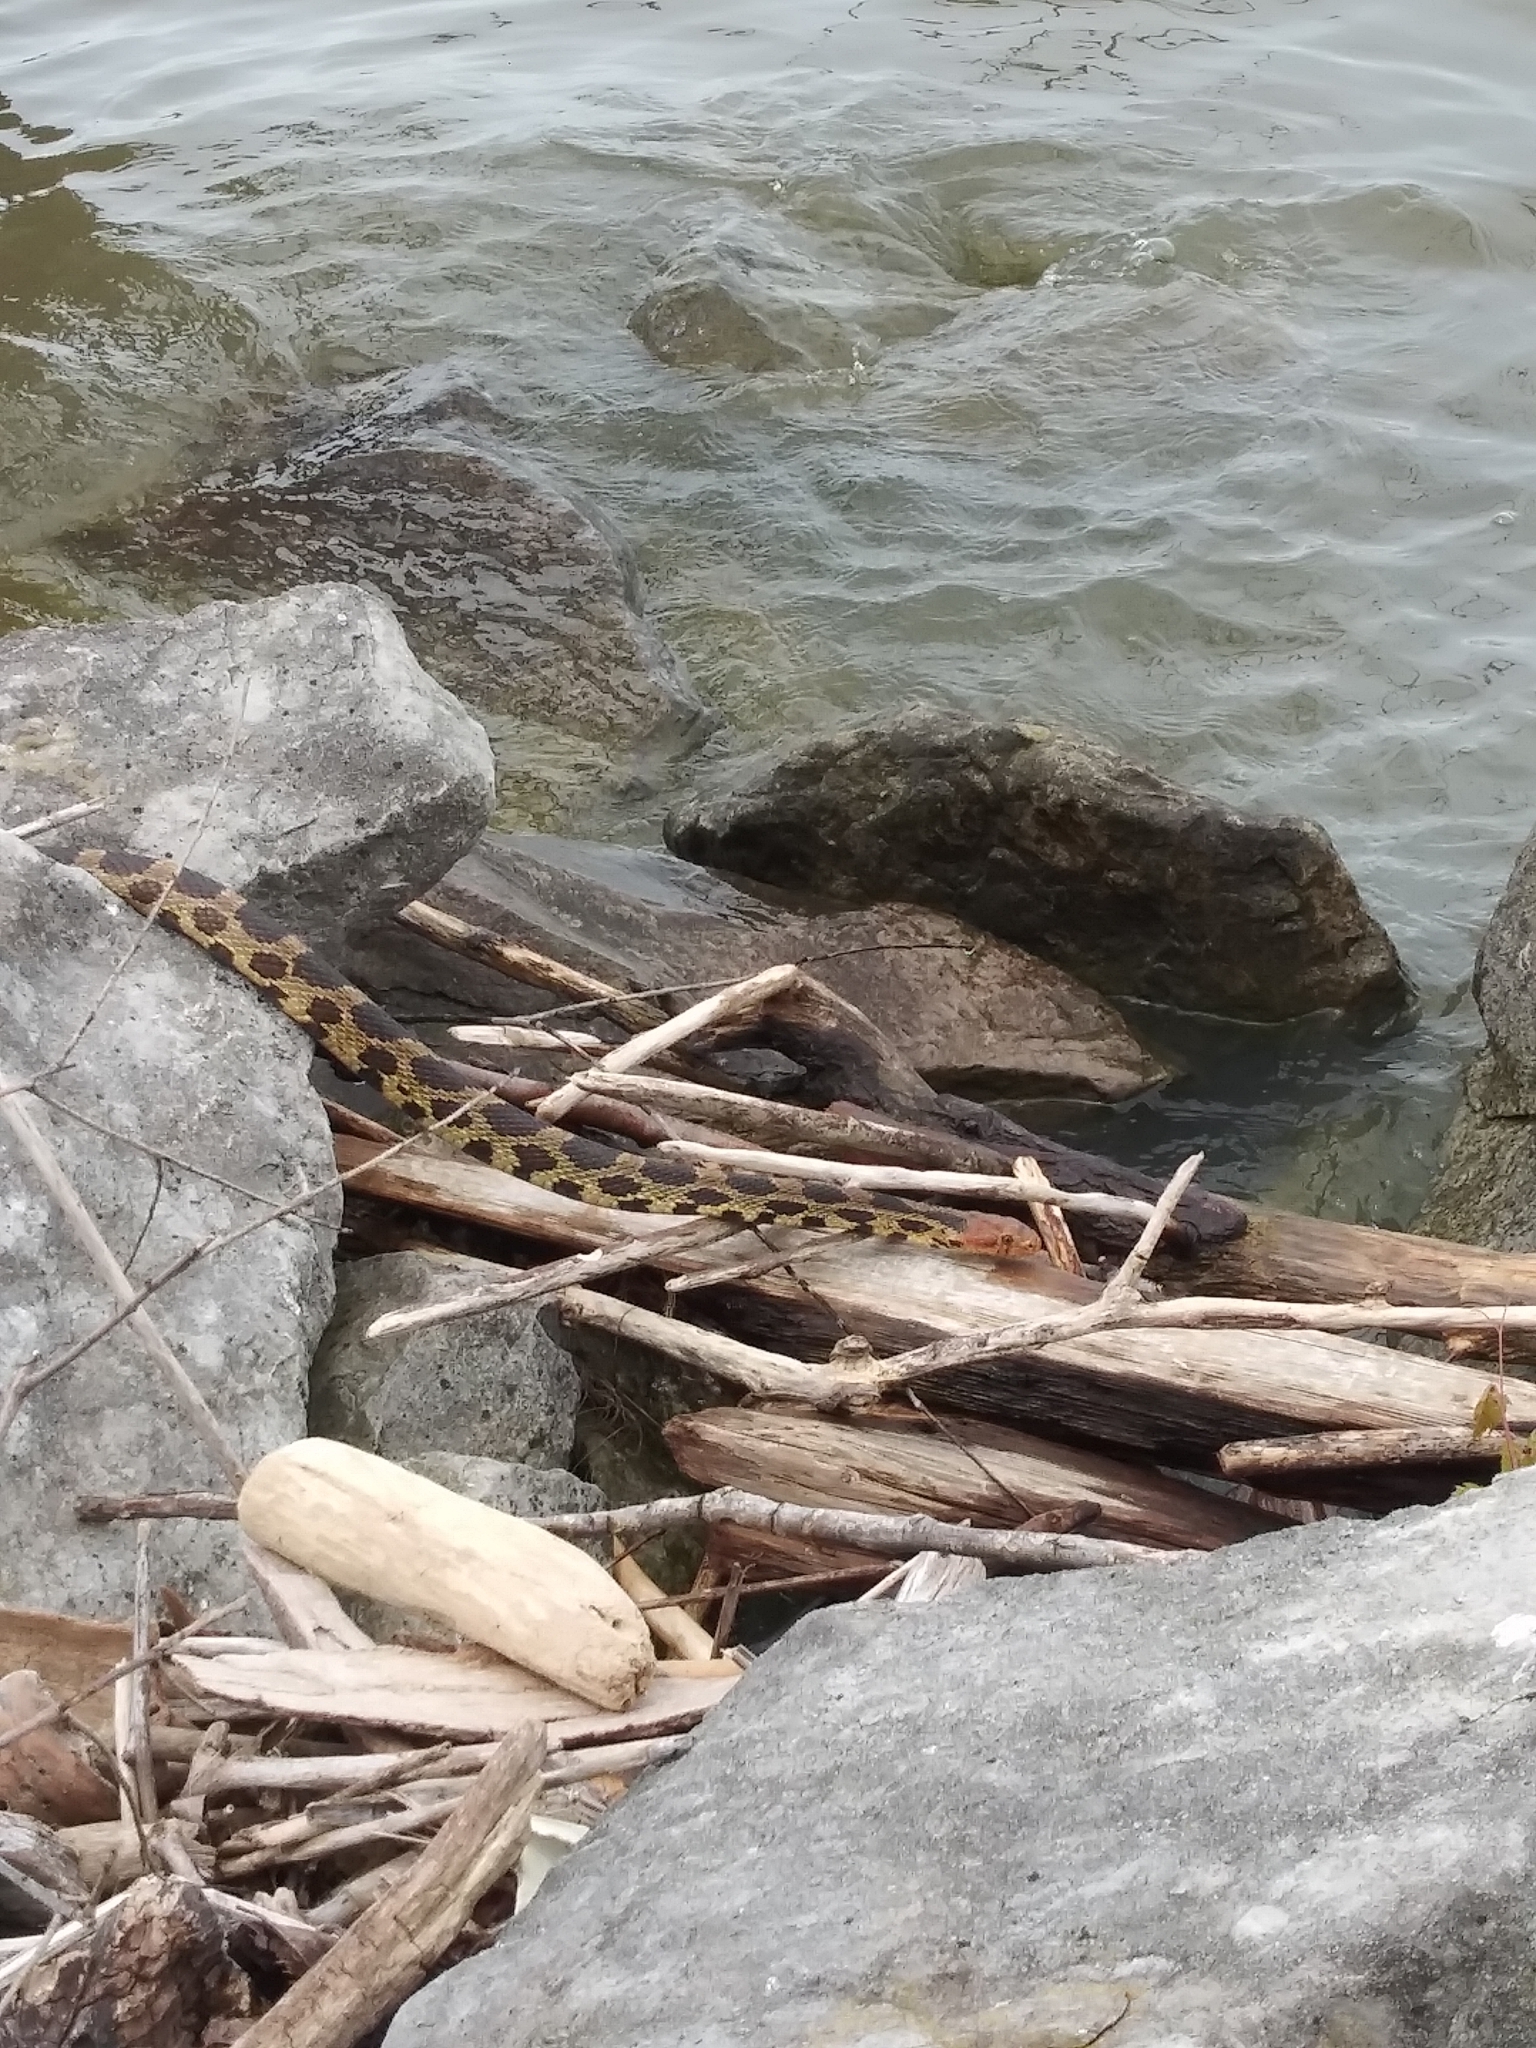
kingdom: Animalia
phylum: Chordata
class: Squamata
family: Colubridae
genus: Pantherophis
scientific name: Pantherophis vulpinus
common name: Eastern fox snake
